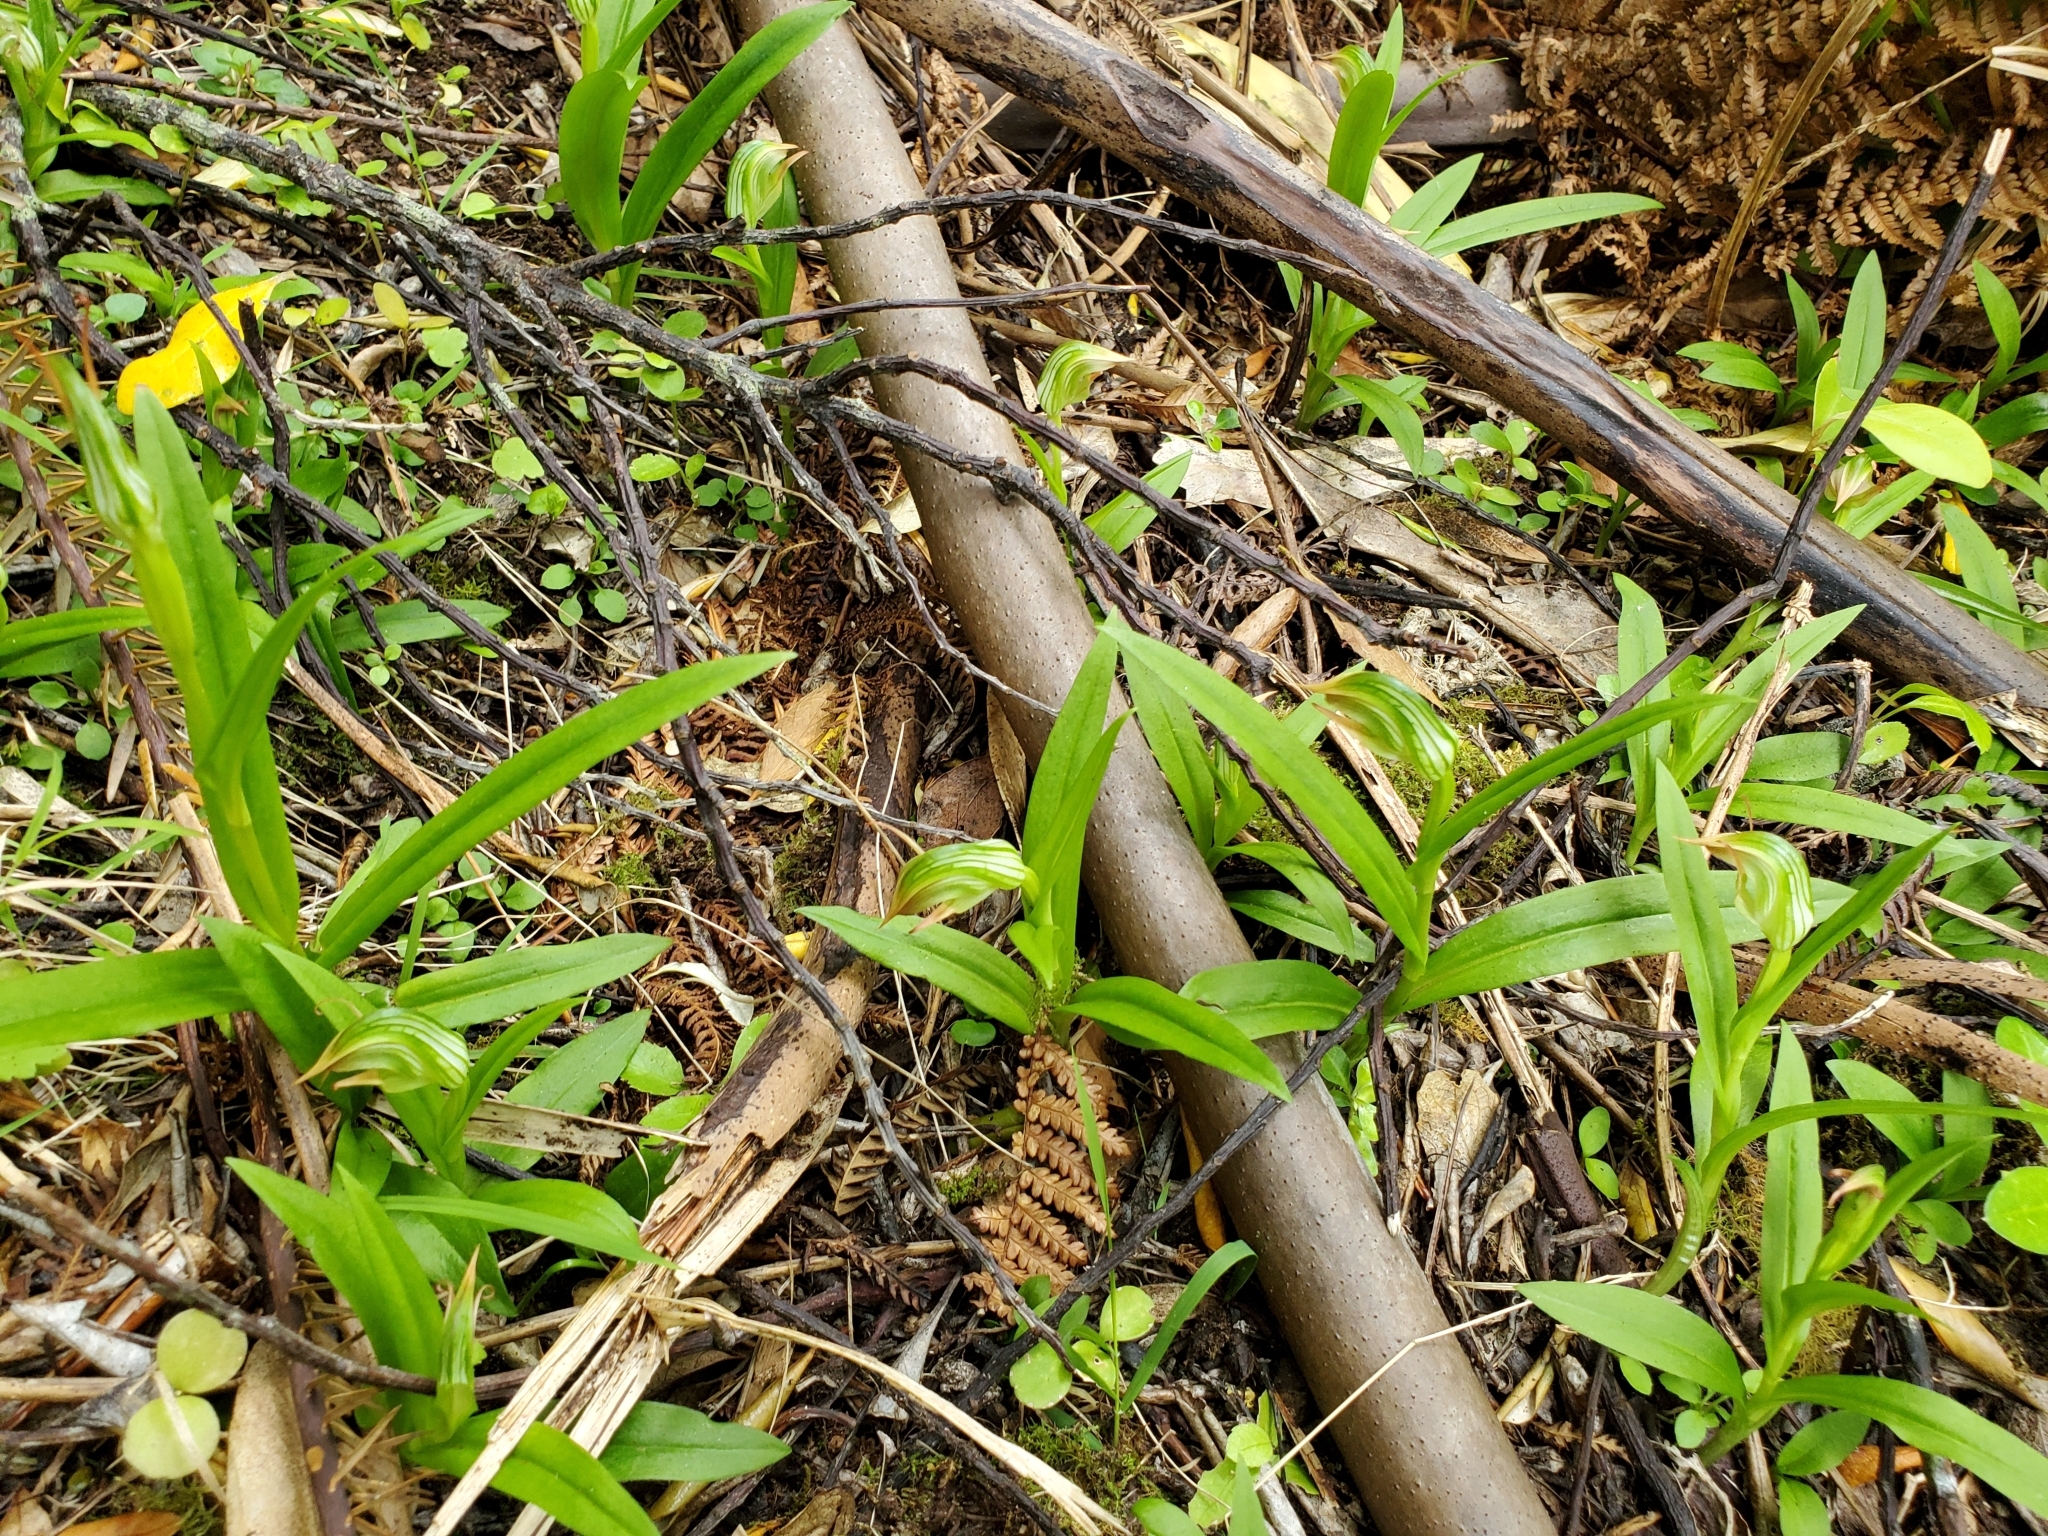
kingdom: Plantae
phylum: Tracheophyta
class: Liliopsida
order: Asparagales
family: Orchidaceae
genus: Pterostylis
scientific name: Pterostylis silvicultrix
